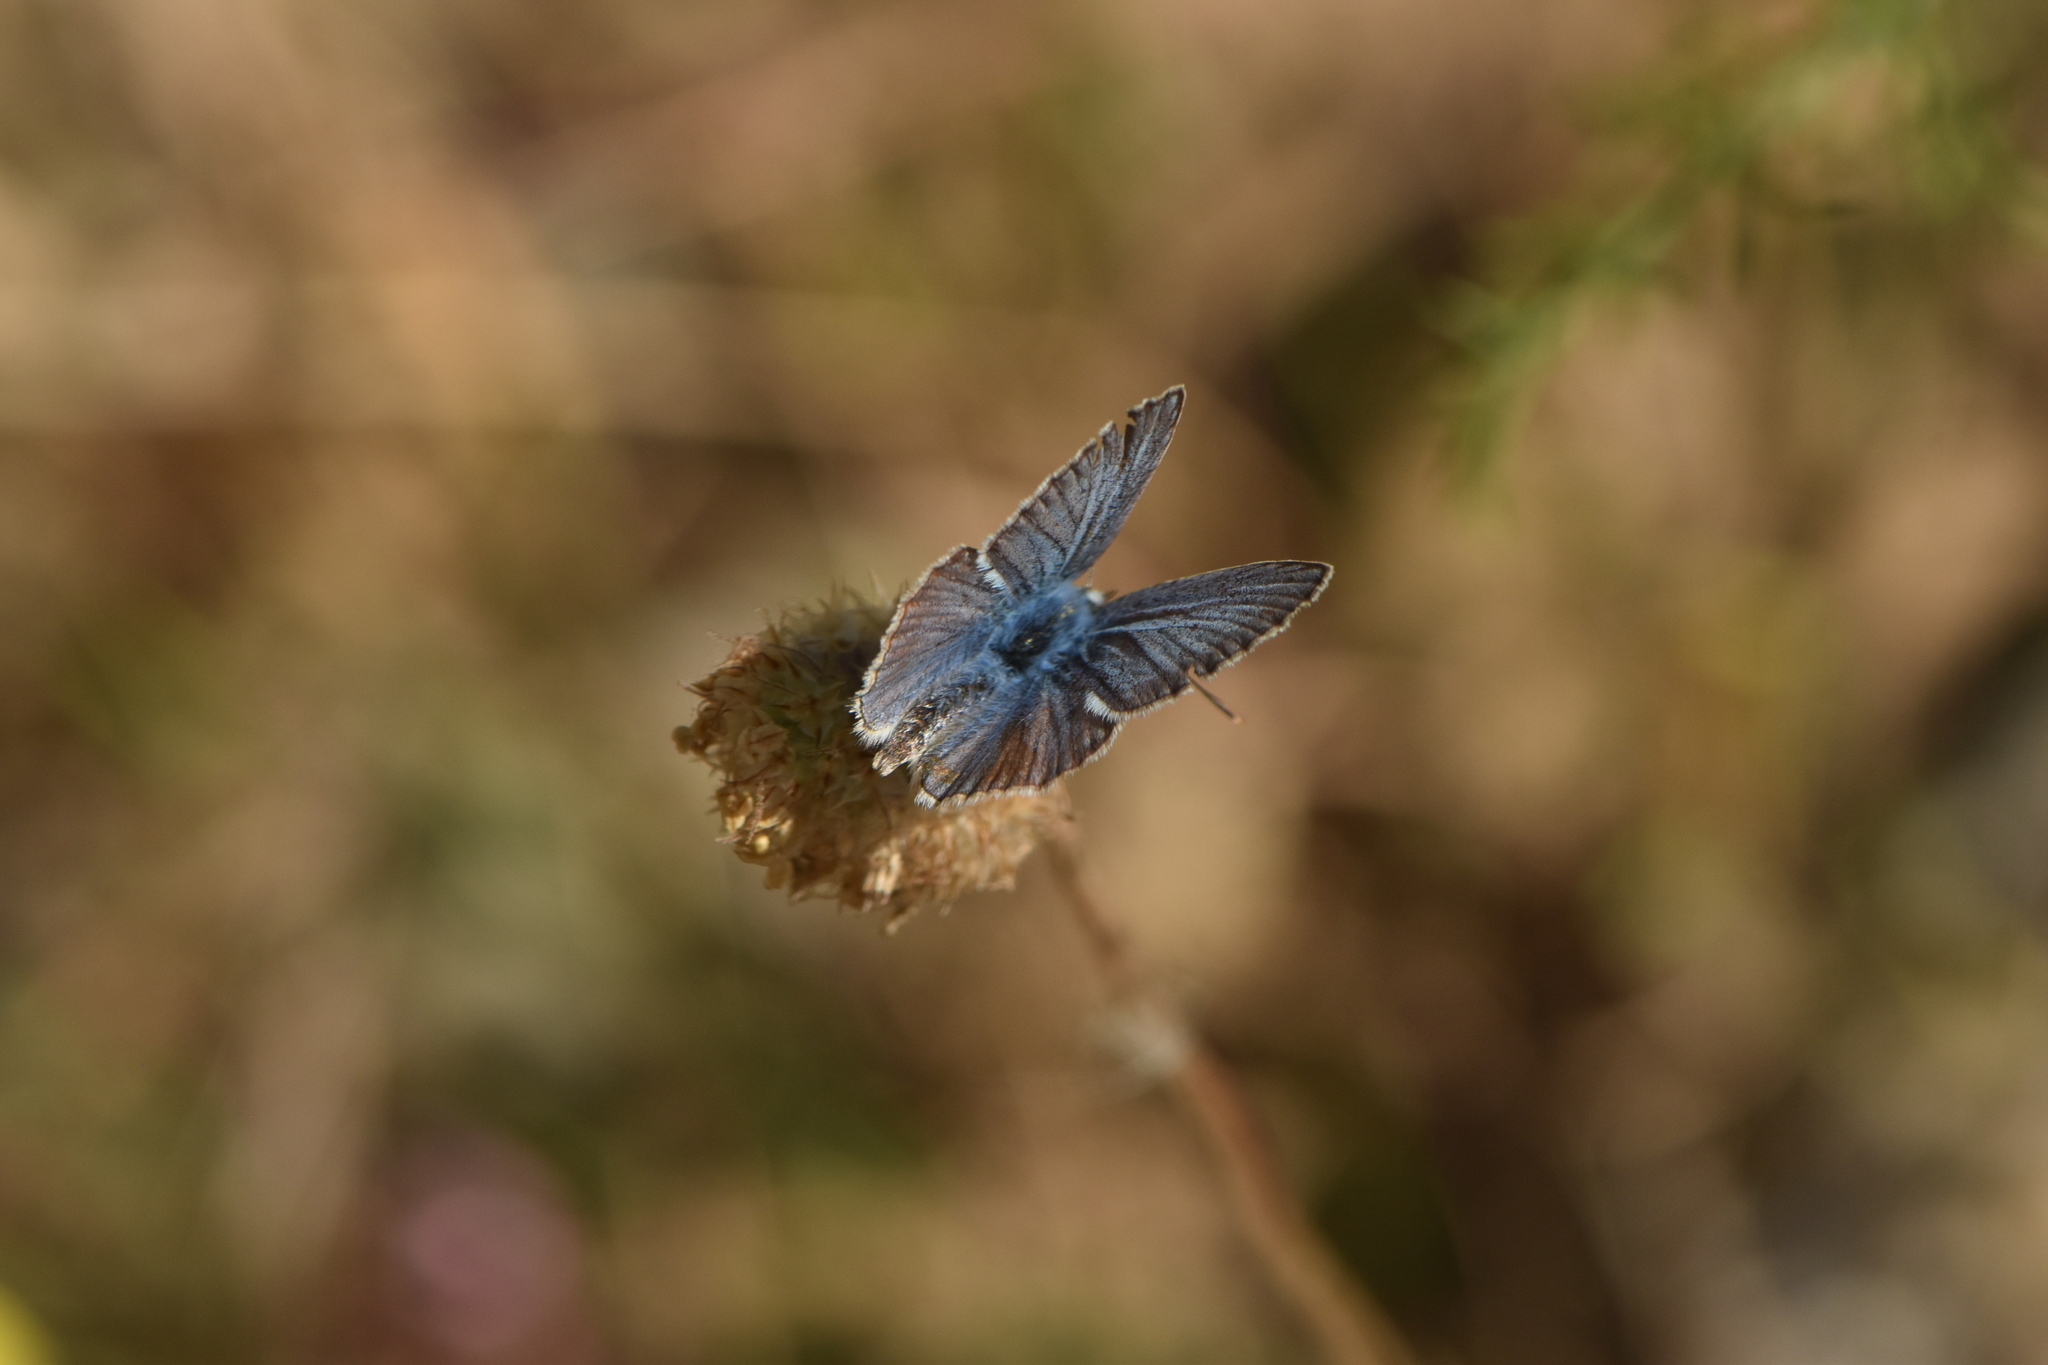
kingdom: Animalia
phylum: Arthropoda
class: Insecta
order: Lepidoptera
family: Lycaenidae
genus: Polyommatus
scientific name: Polyommatus celina
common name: Austaut's blue
